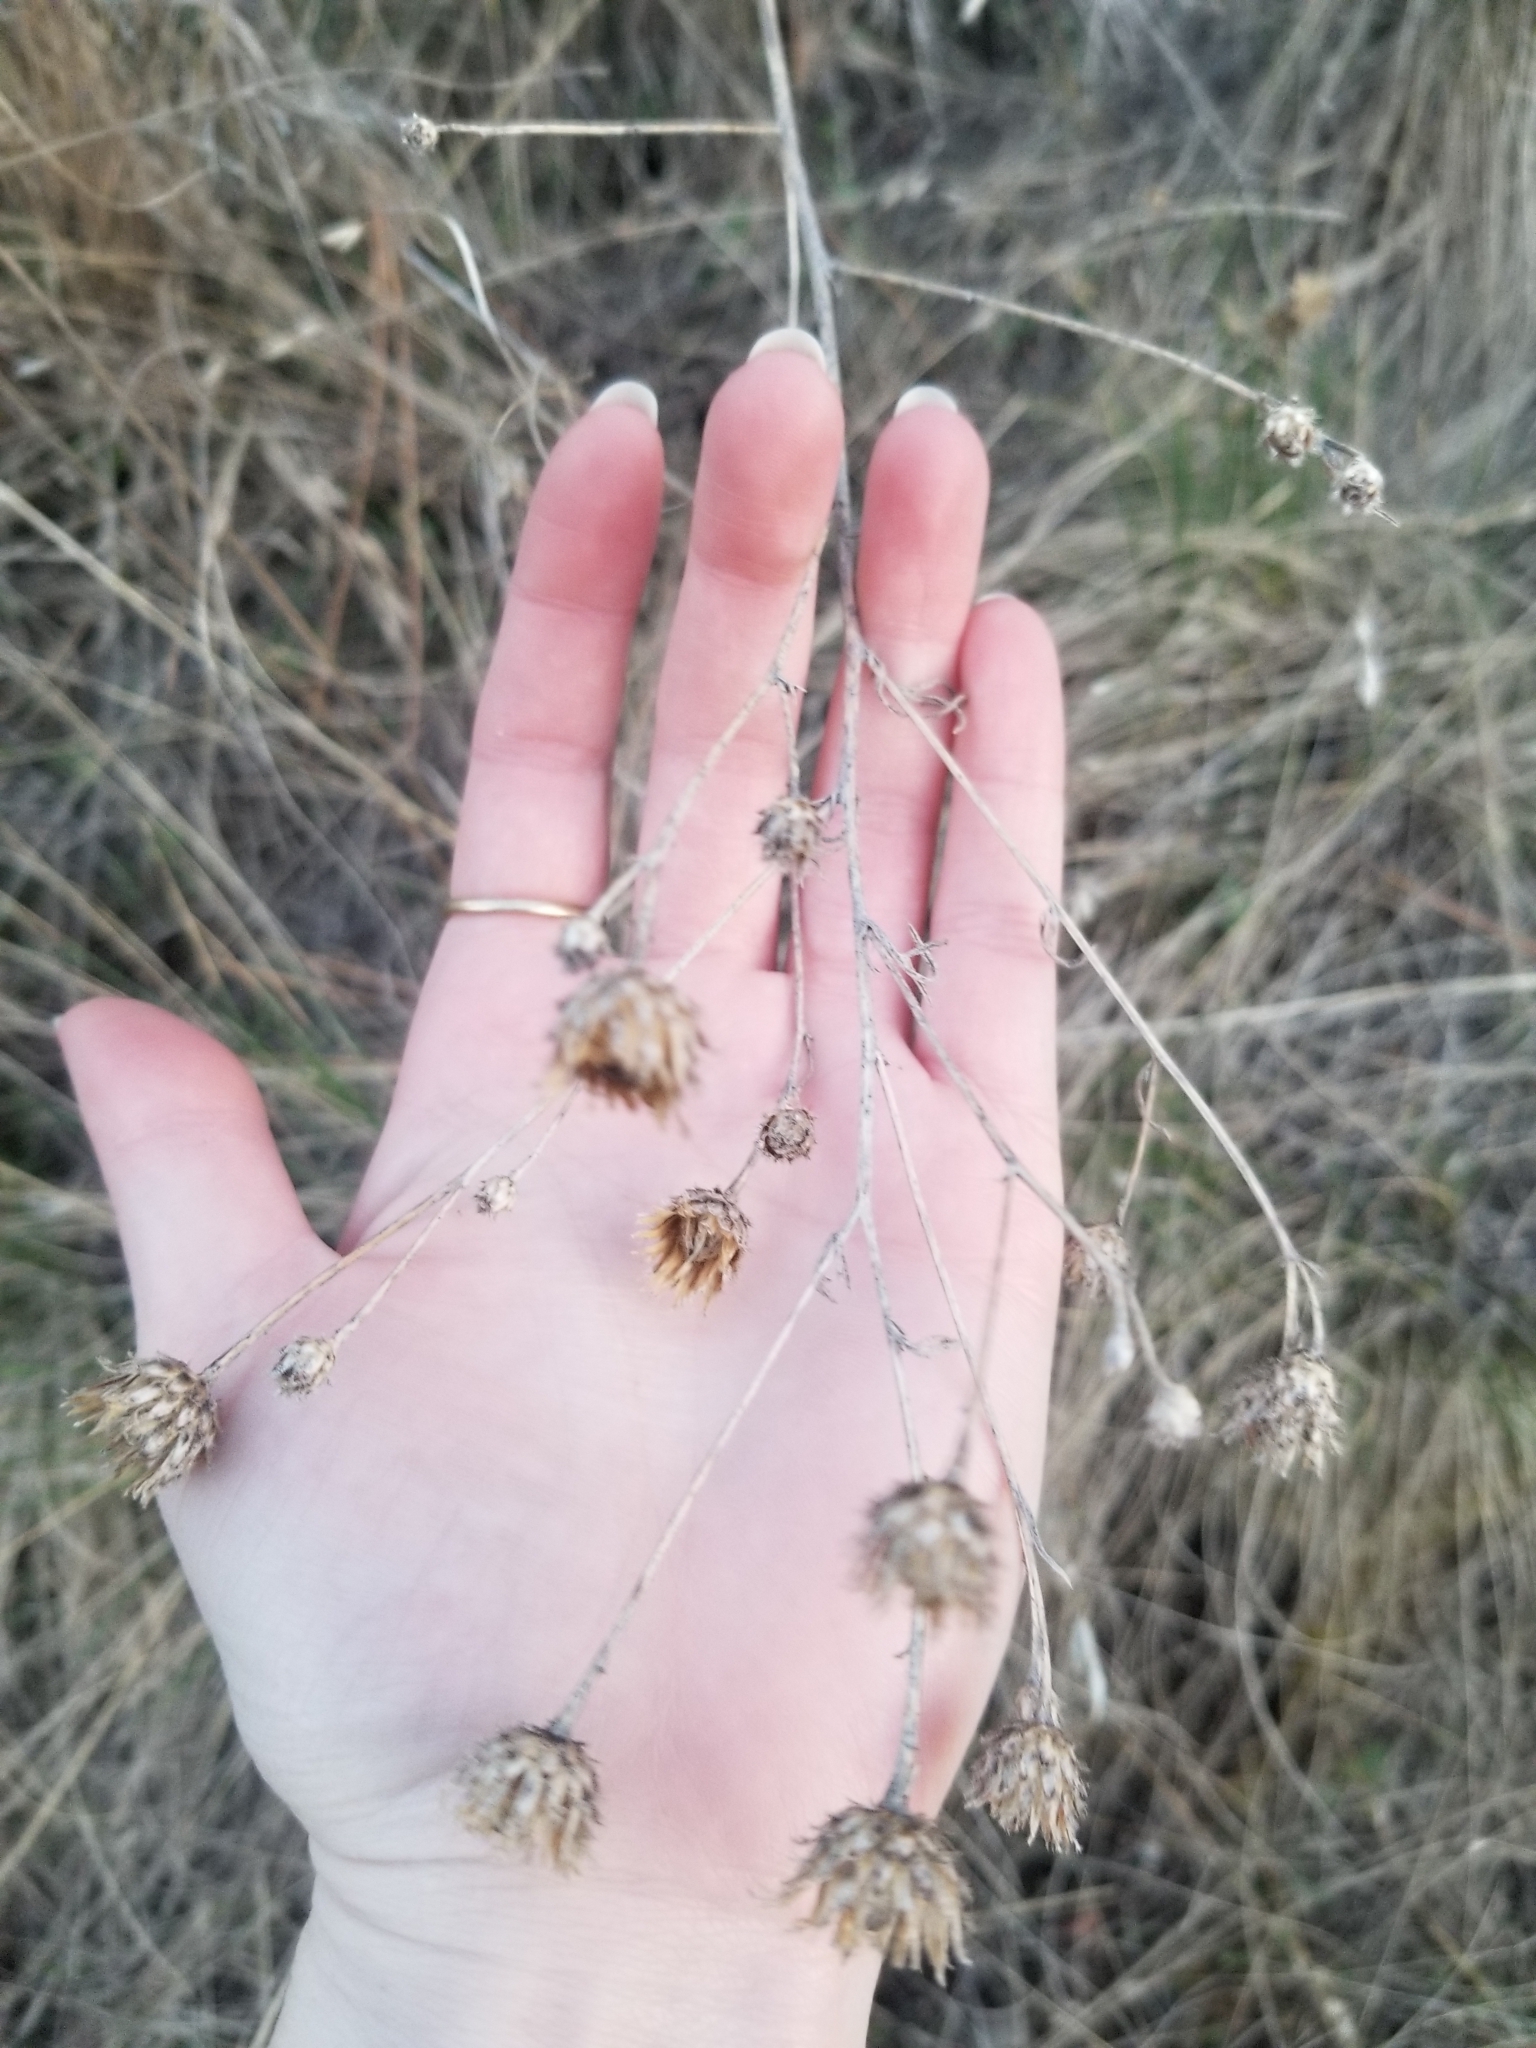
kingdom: Plantae
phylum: Tracheophyta
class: Magnoliopsida
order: Asterales
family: Asteraceae
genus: Centaurea
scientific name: Centaurea stoebe
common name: Spotted knapweed
